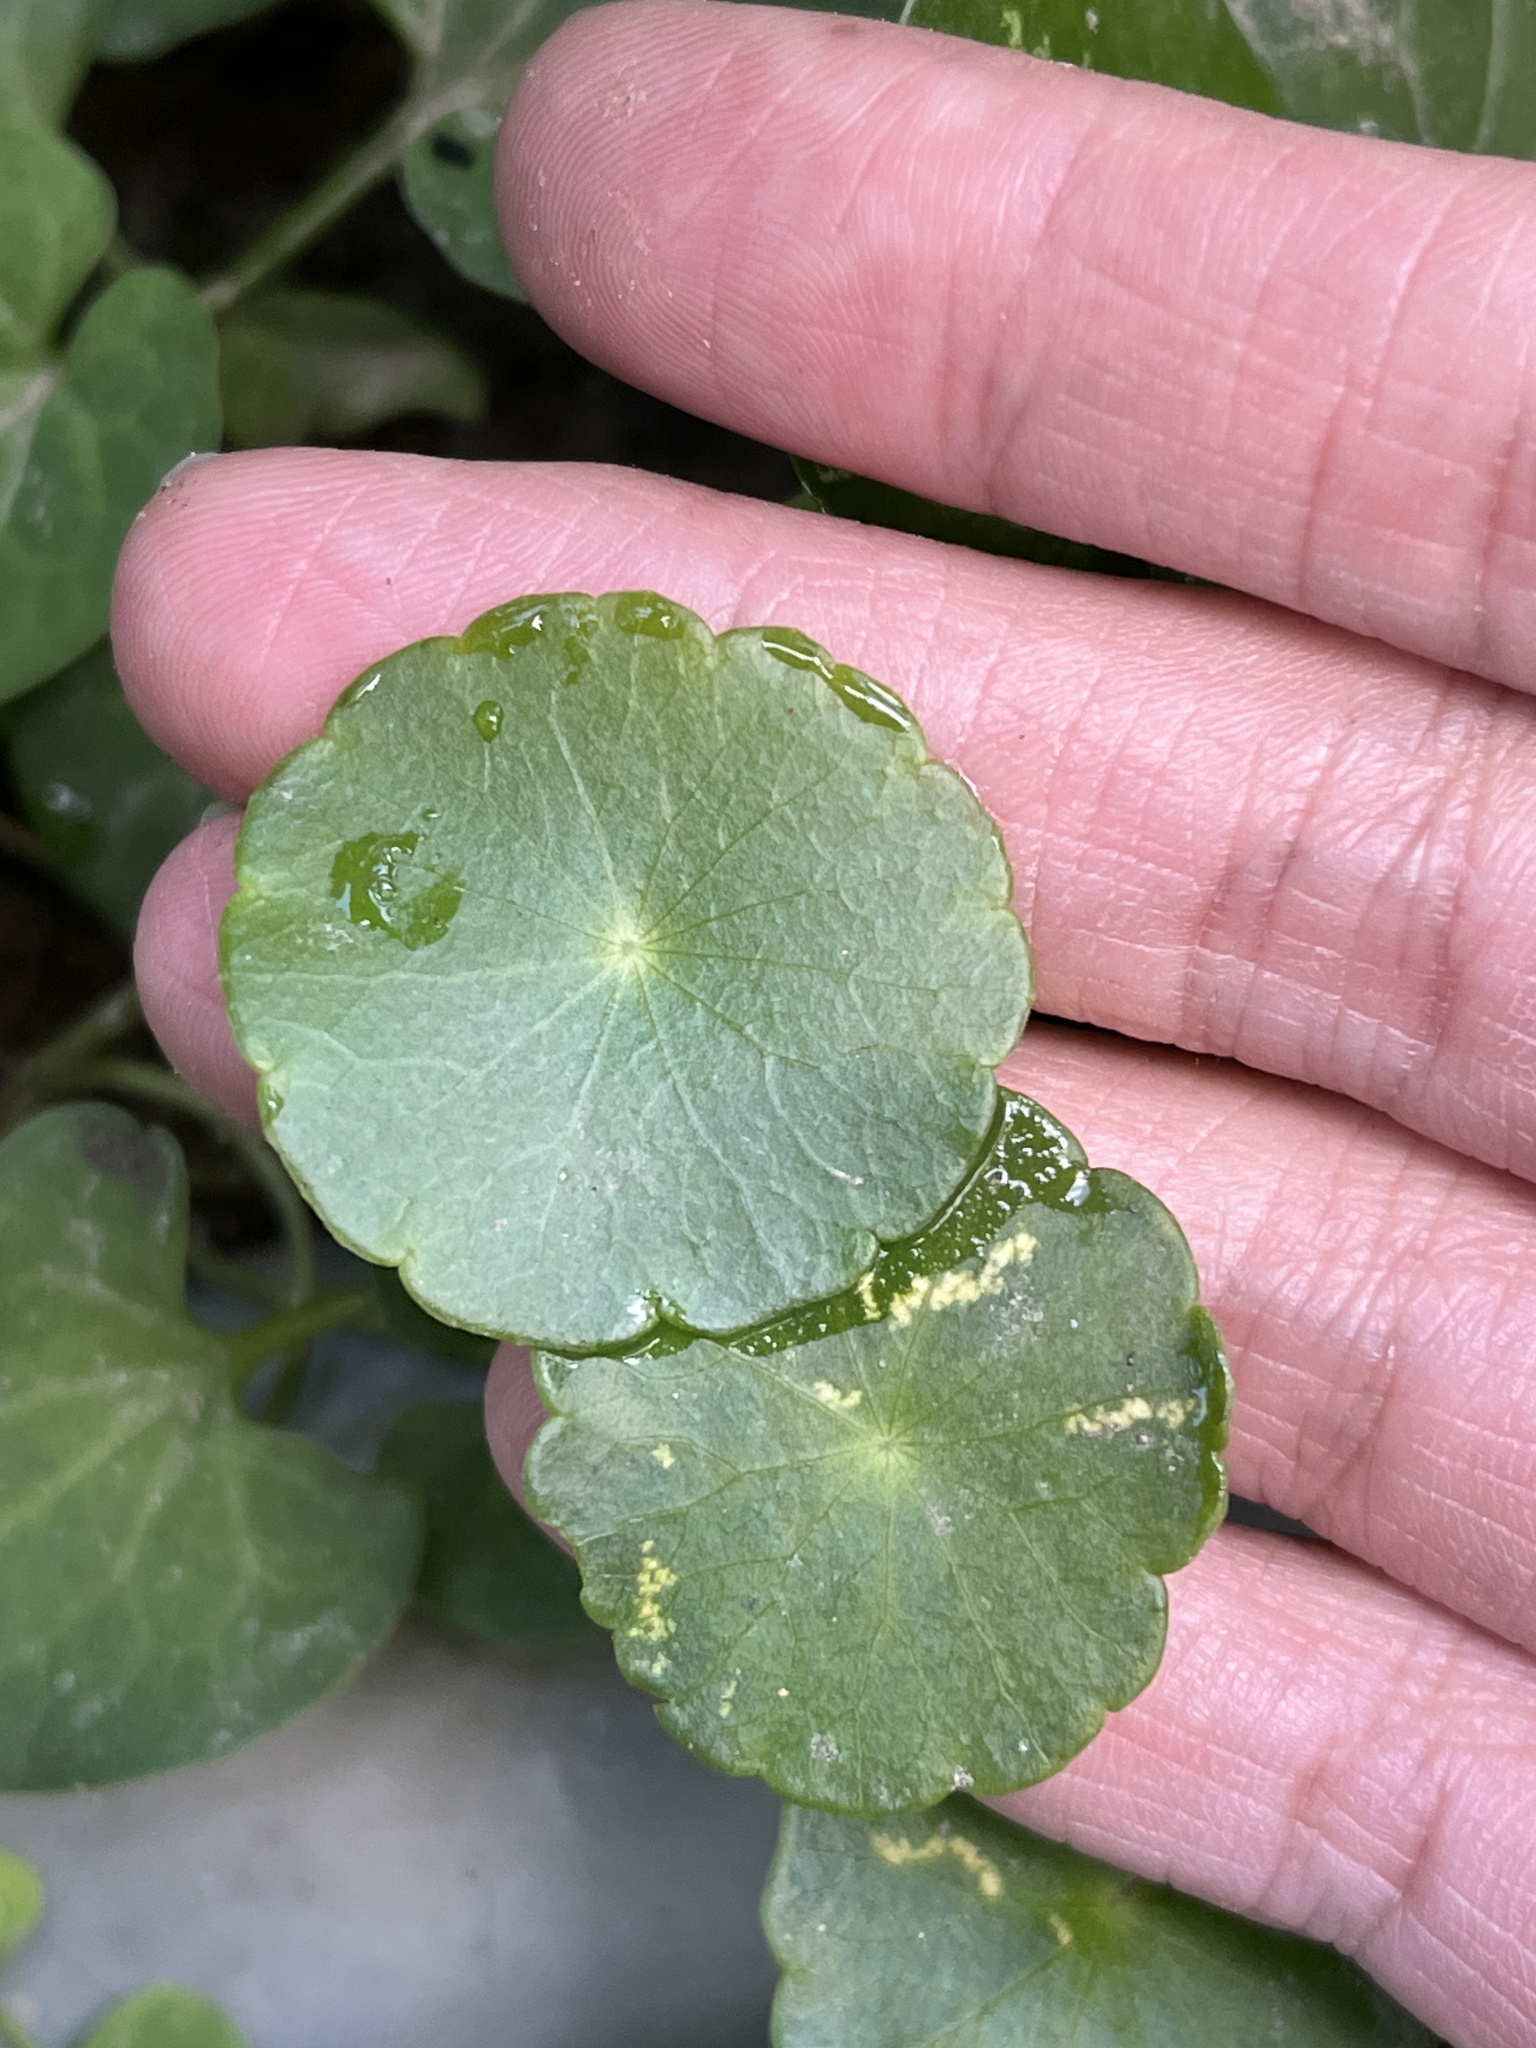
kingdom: Plantae
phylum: Tracheophyta
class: Magnoliopsida
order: Apiales
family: Araliaceae
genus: Hydrocotyle
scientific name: Hydrocotyle verticillata
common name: Whorled marshpennywort
